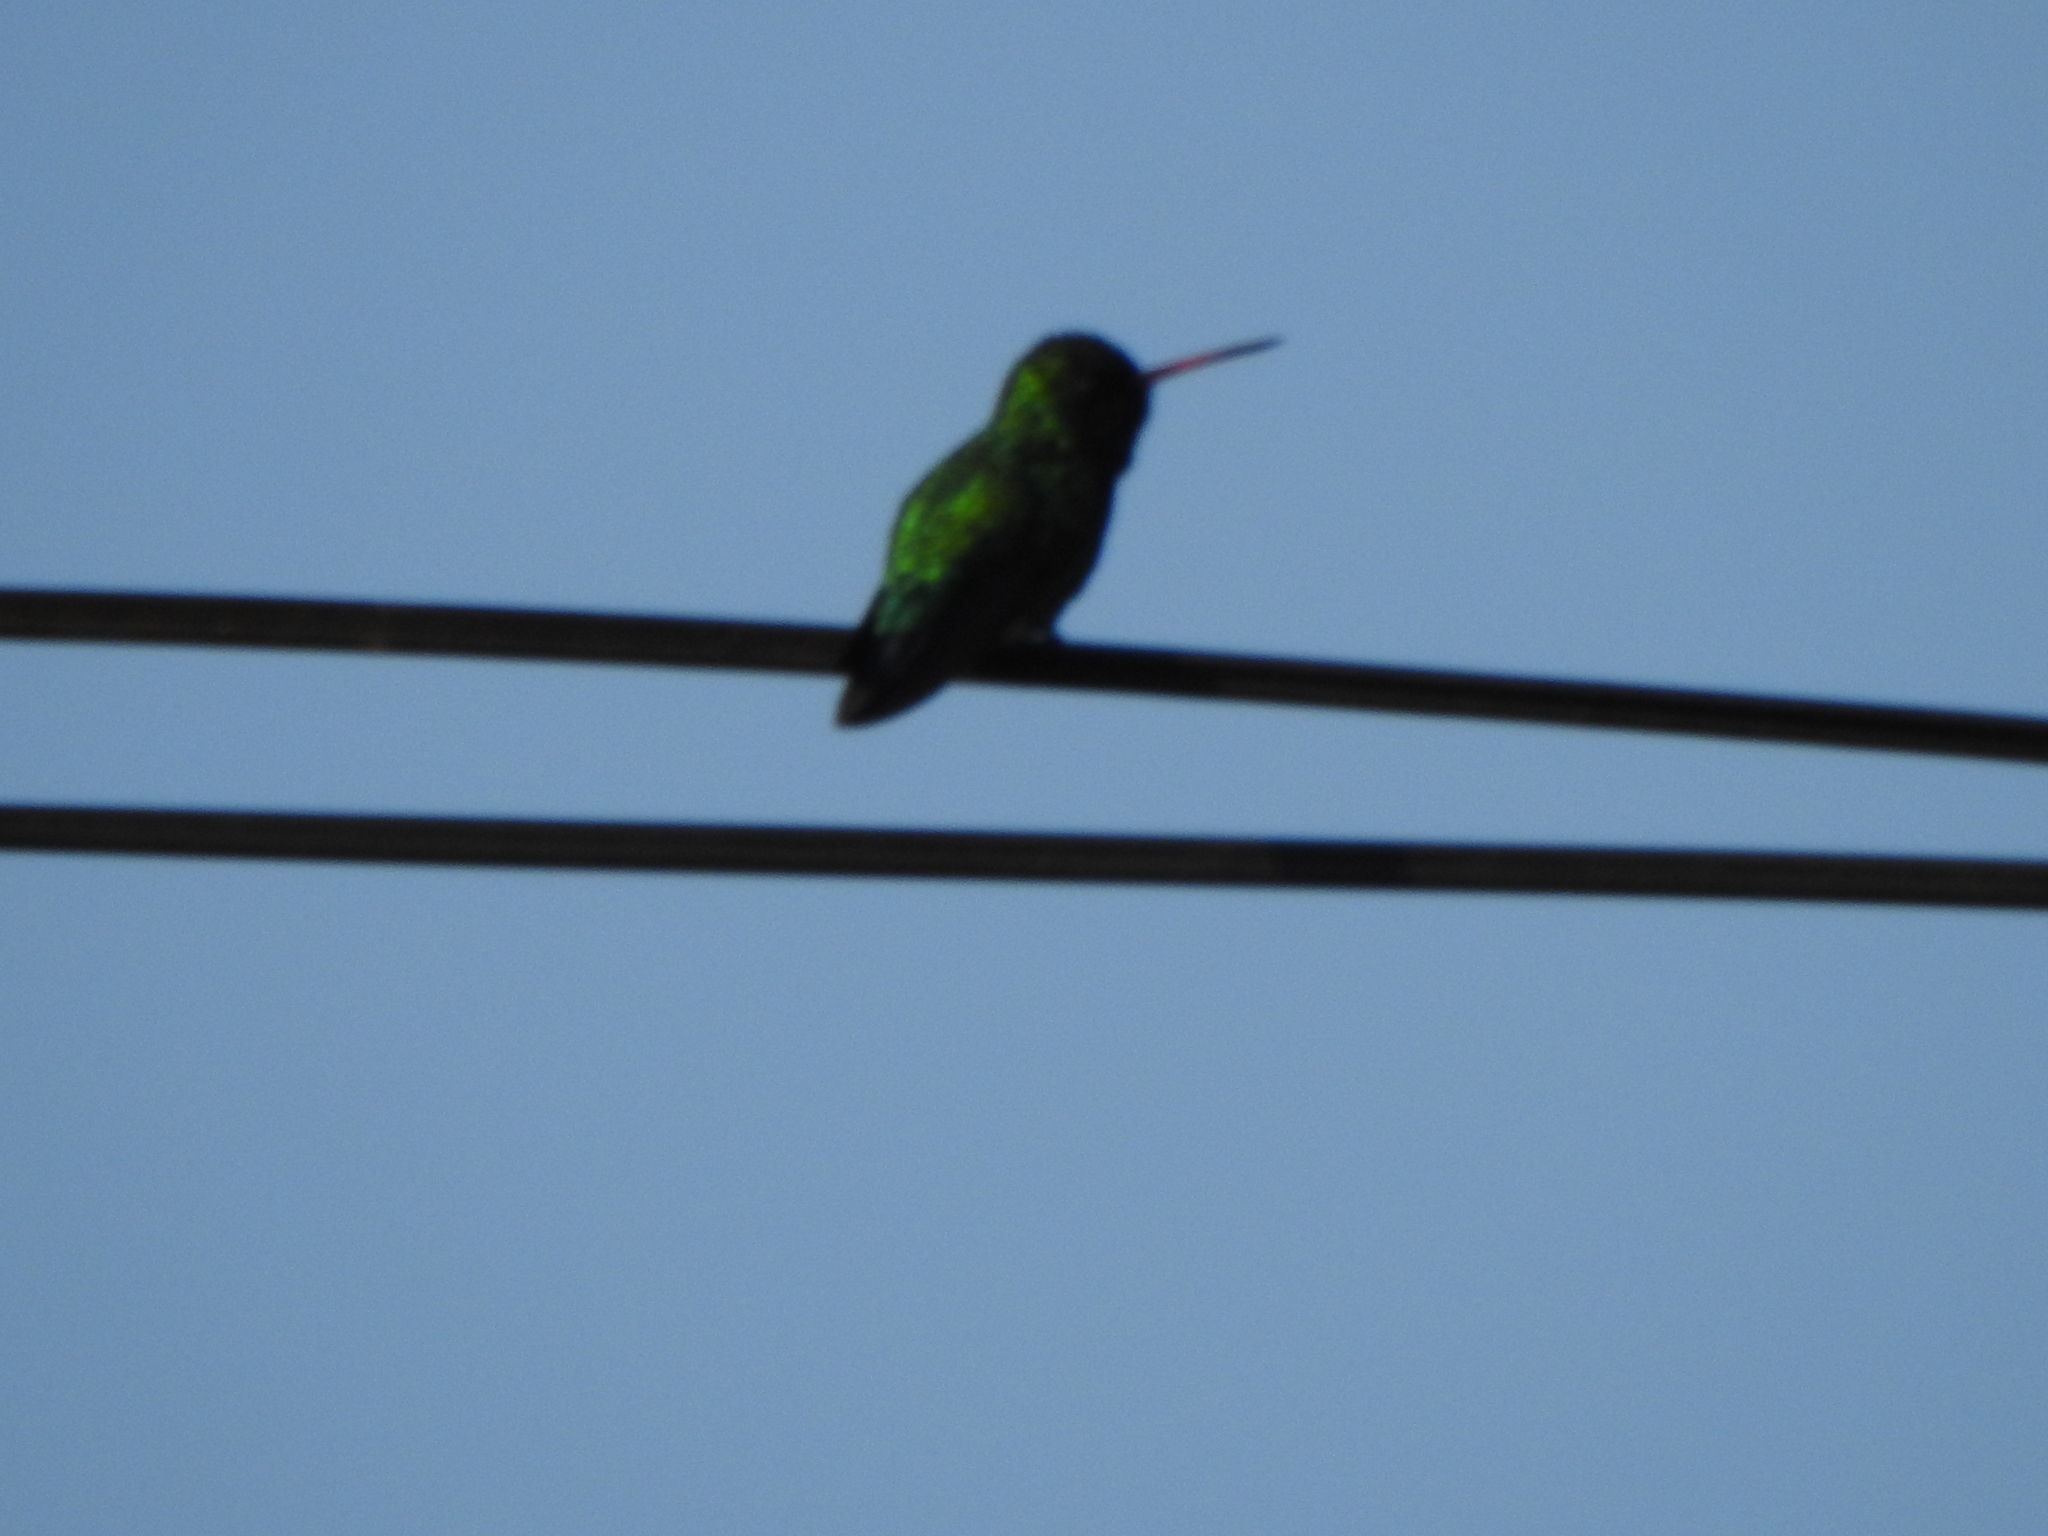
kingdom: Animalia
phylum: Chordata
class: Aves
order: Apodiformes
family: Trochilidae
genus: Chlorostilbon
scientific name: Chlorostilbon lucidus
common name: Glittering-bellied emerald
